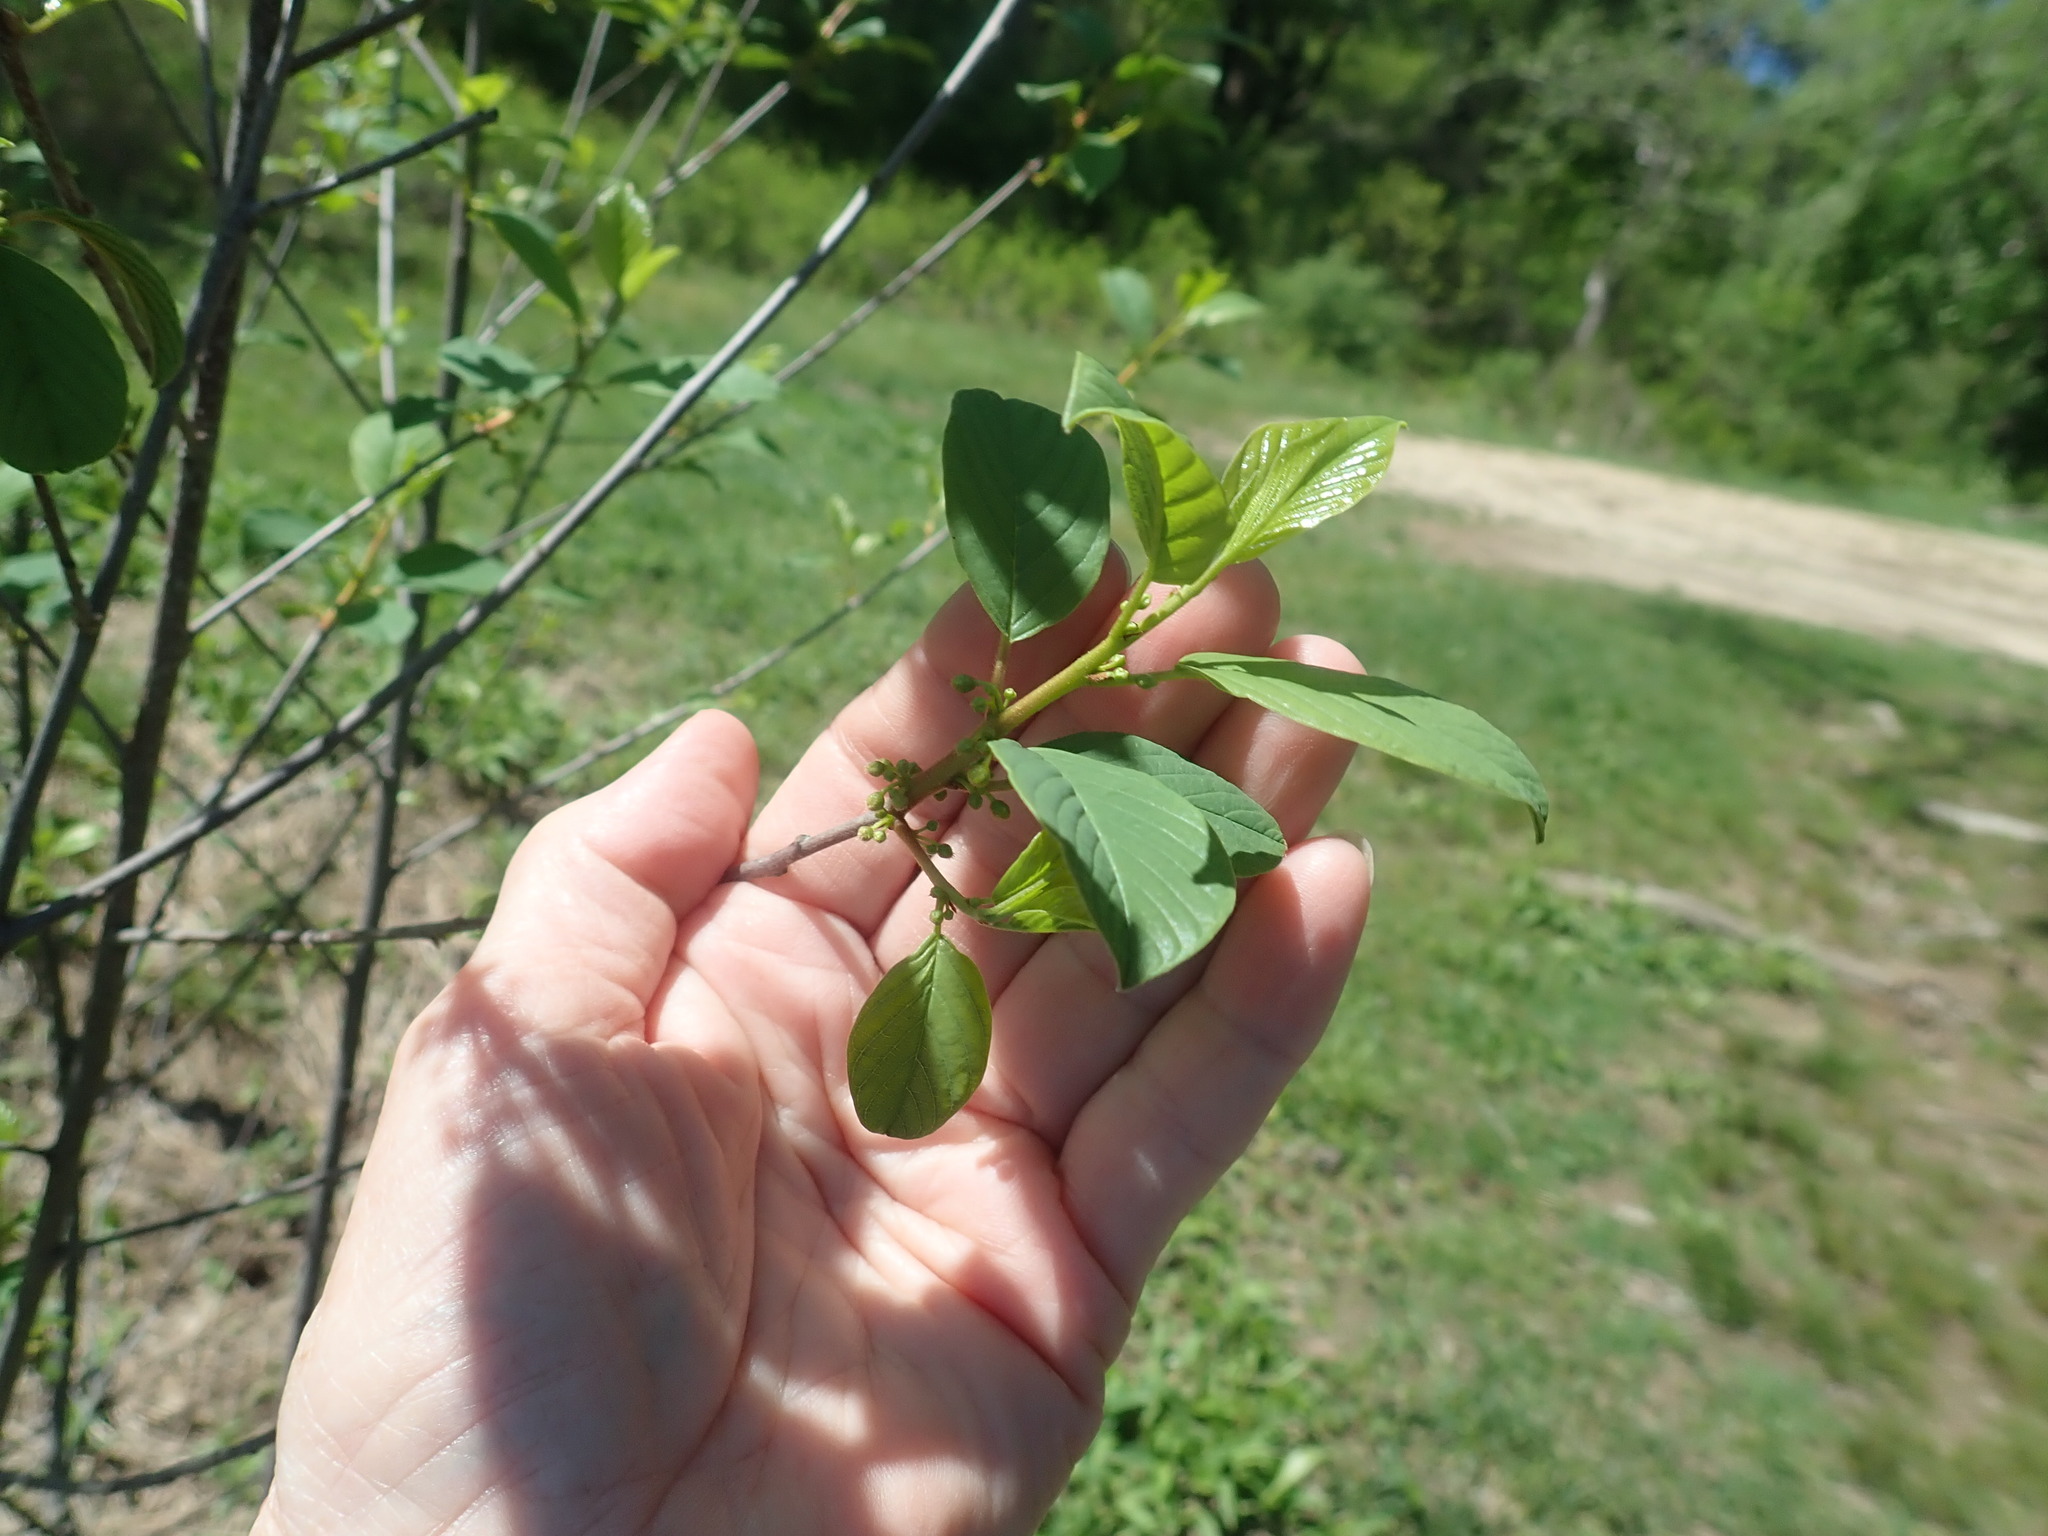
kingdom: Plantae
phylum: Tracheophyta
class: Magnoliopsida
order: Rosales
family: Rhamnaceae
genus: Frangula
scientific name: Frangula alnus
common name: Alder buckthorn
